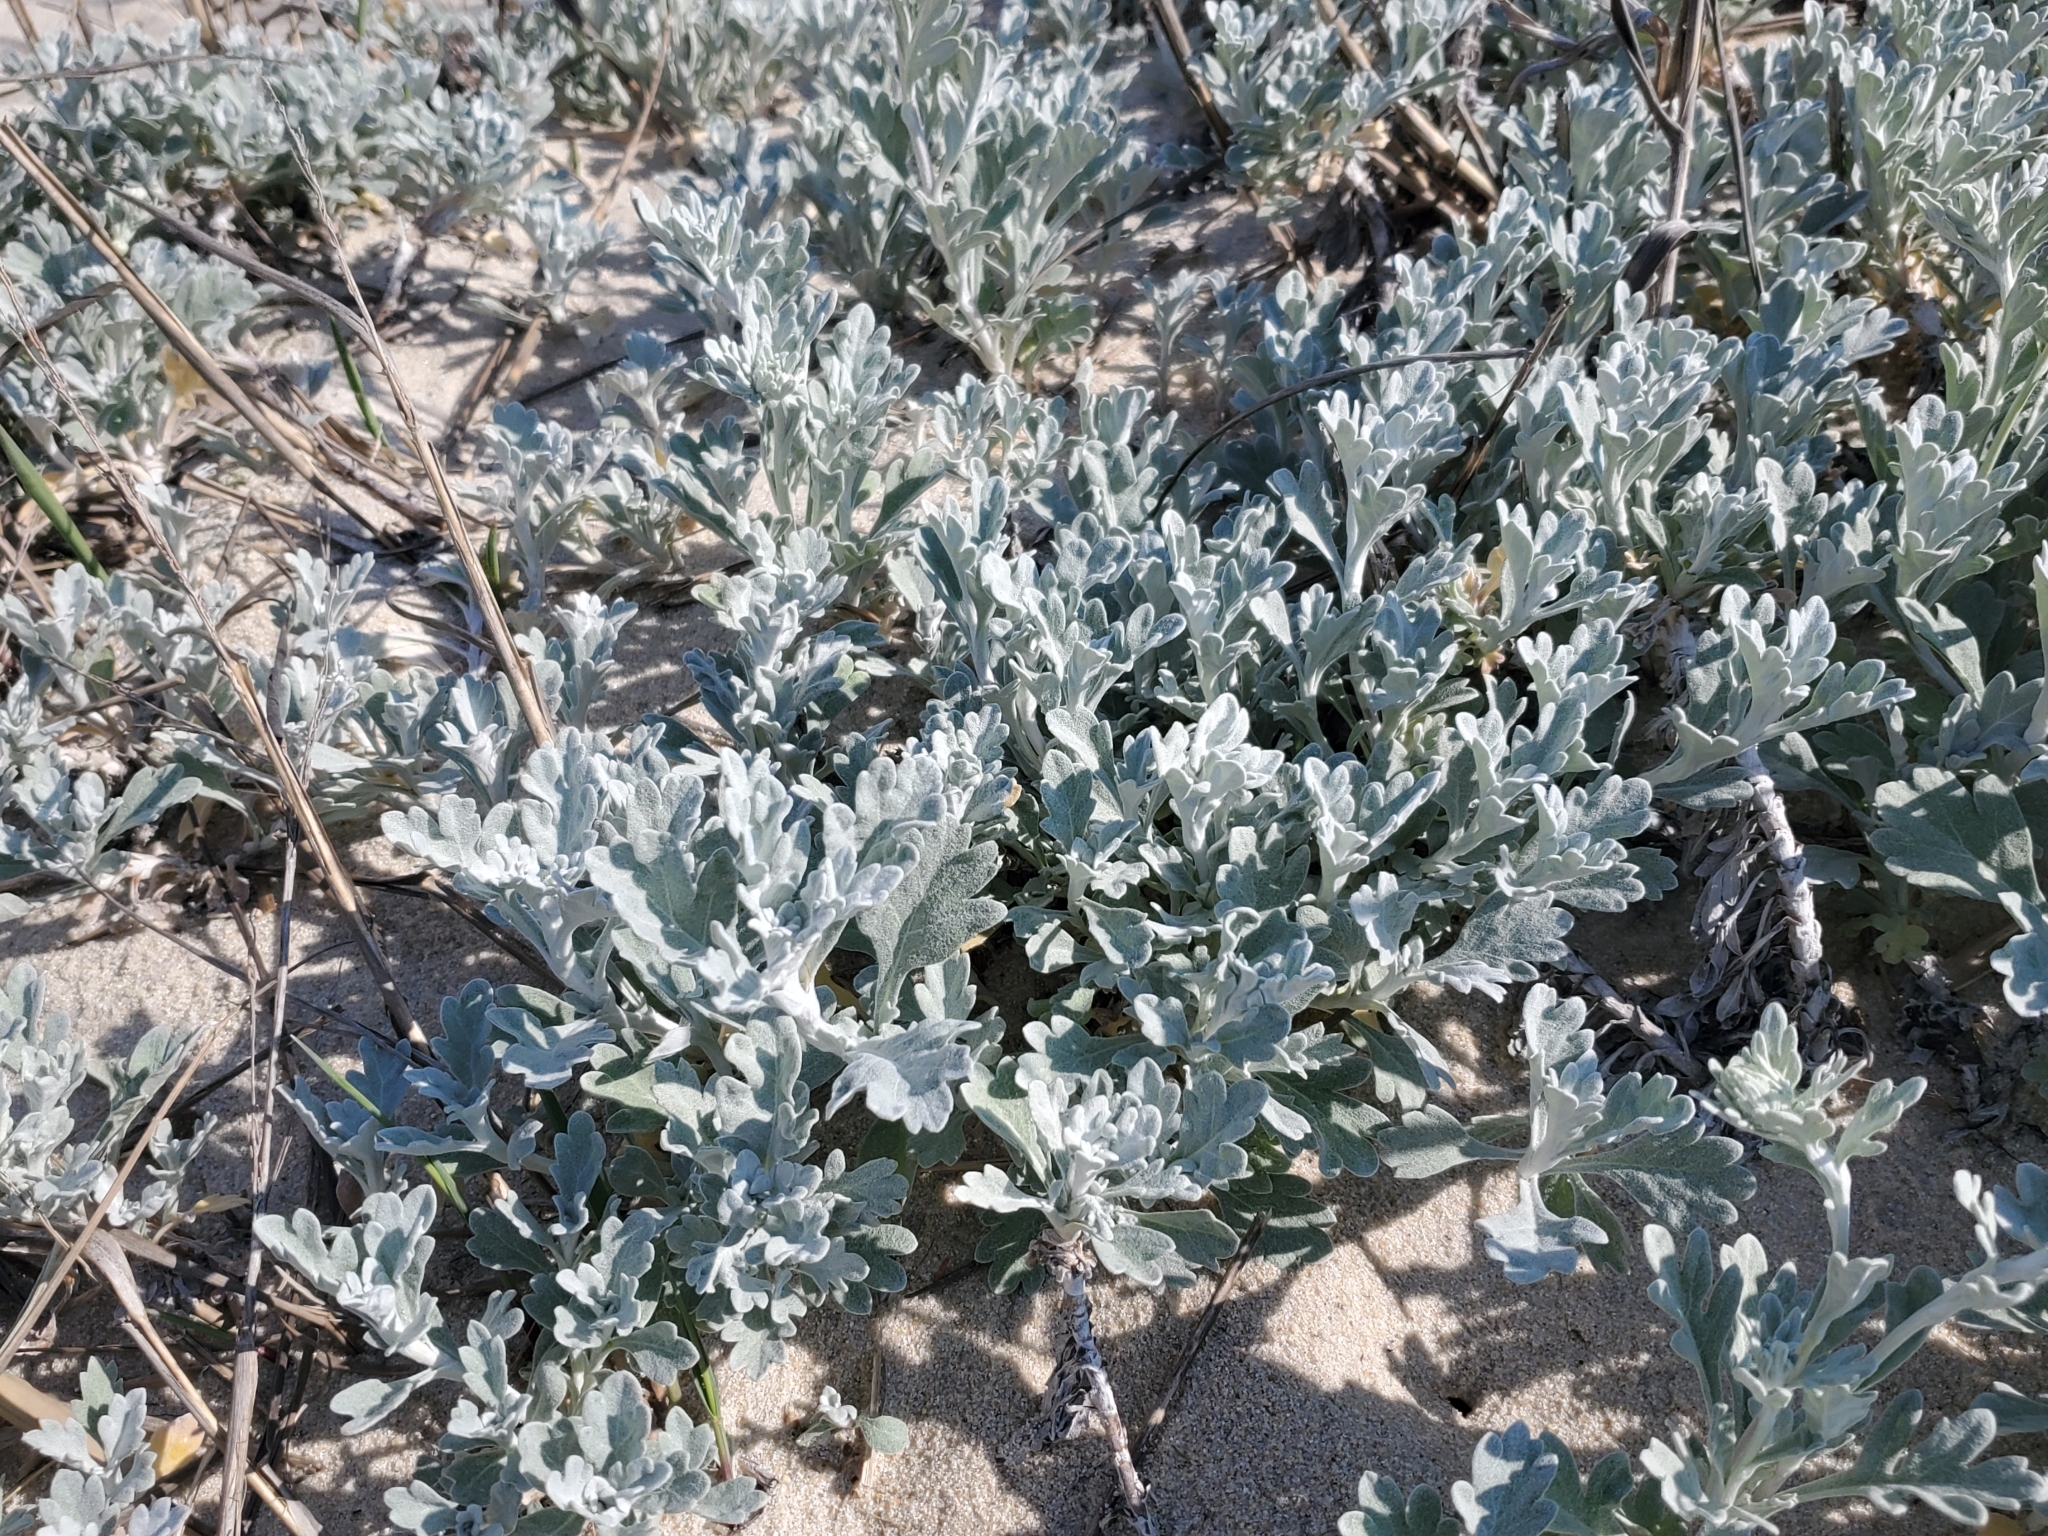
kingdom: Plantae
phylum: Tracheophyta
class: Magnoliopsida
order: Asterales
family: Asteraceae
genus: Artemisia
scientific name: Artemisia stelleriana
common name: Beach wormwood
